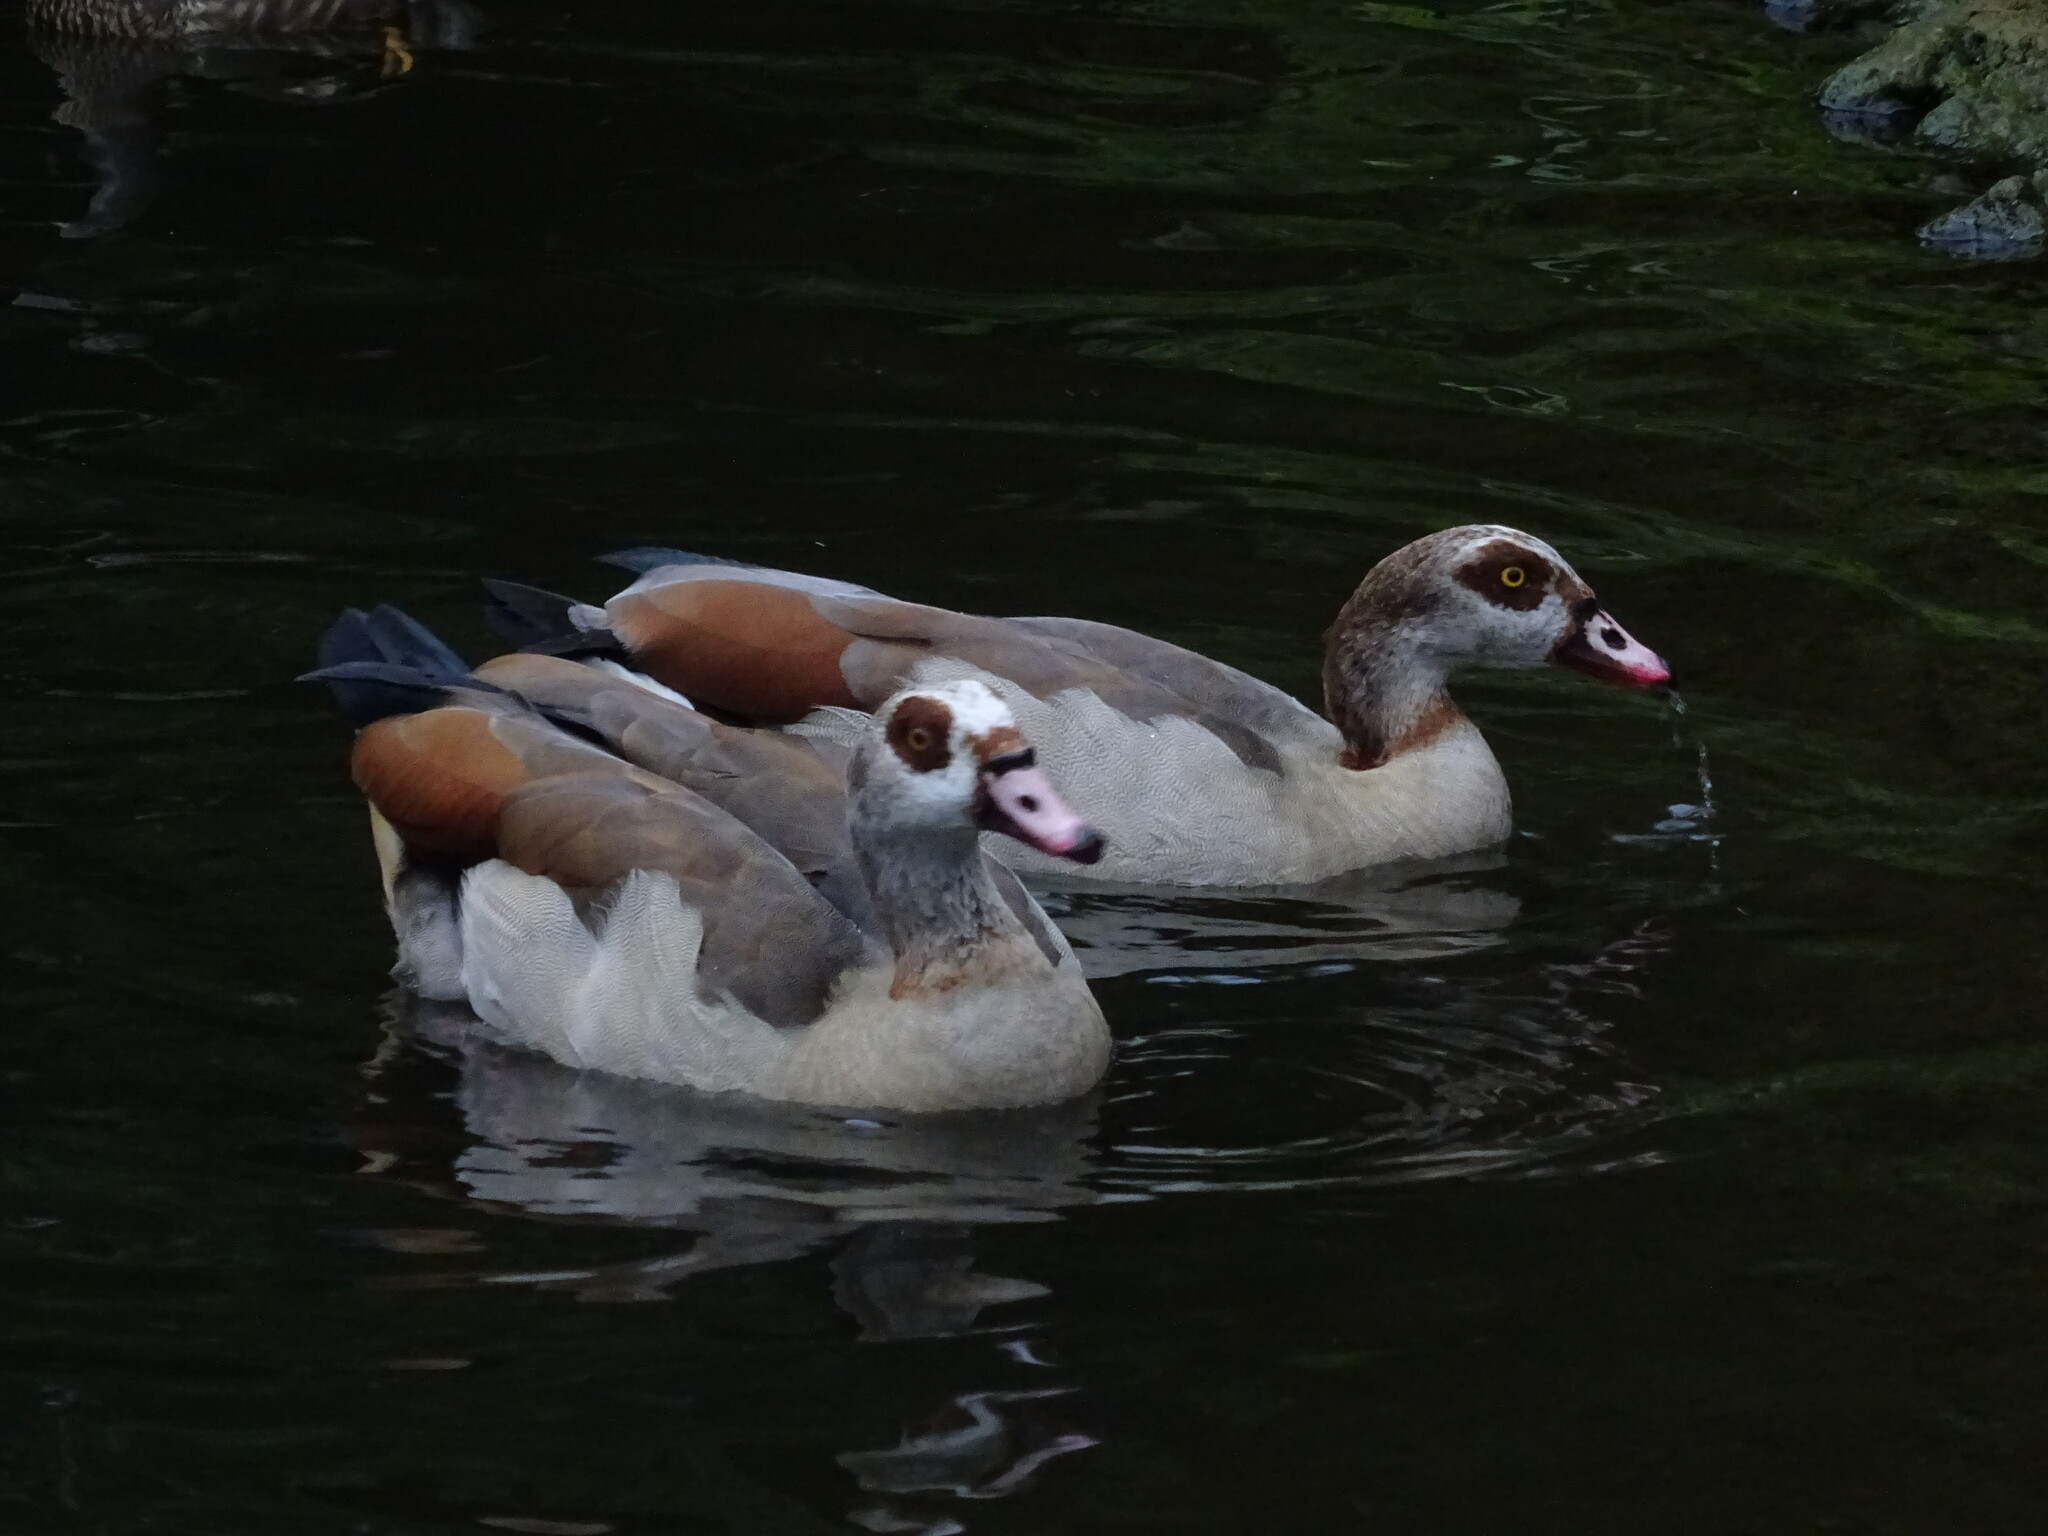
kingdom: Animalia
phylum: Chordata
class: Aves
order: Anseriformes
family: Anatidae
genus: Alopochen
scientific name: Alopochen aegyptiaca
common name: Egyptian goose
